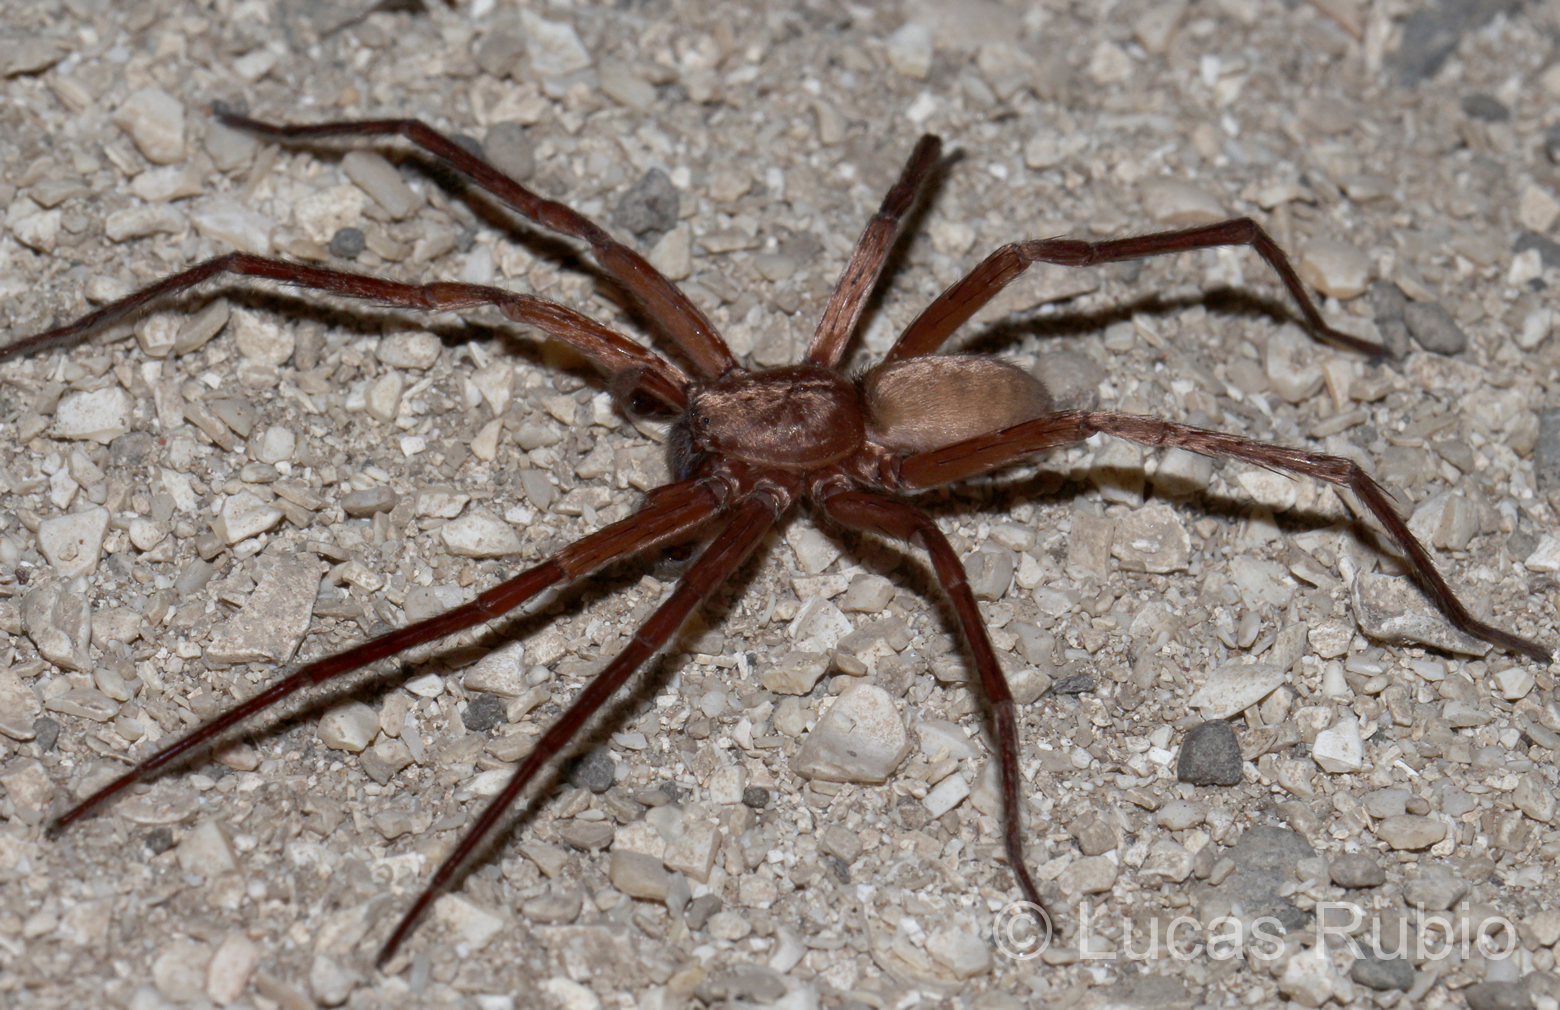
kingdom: Animalia
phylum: Arthropoda
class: Arachnida
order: Araneae
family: Ctenidae
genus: Asthenoctenus
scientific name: Asthenoctenus borellii
